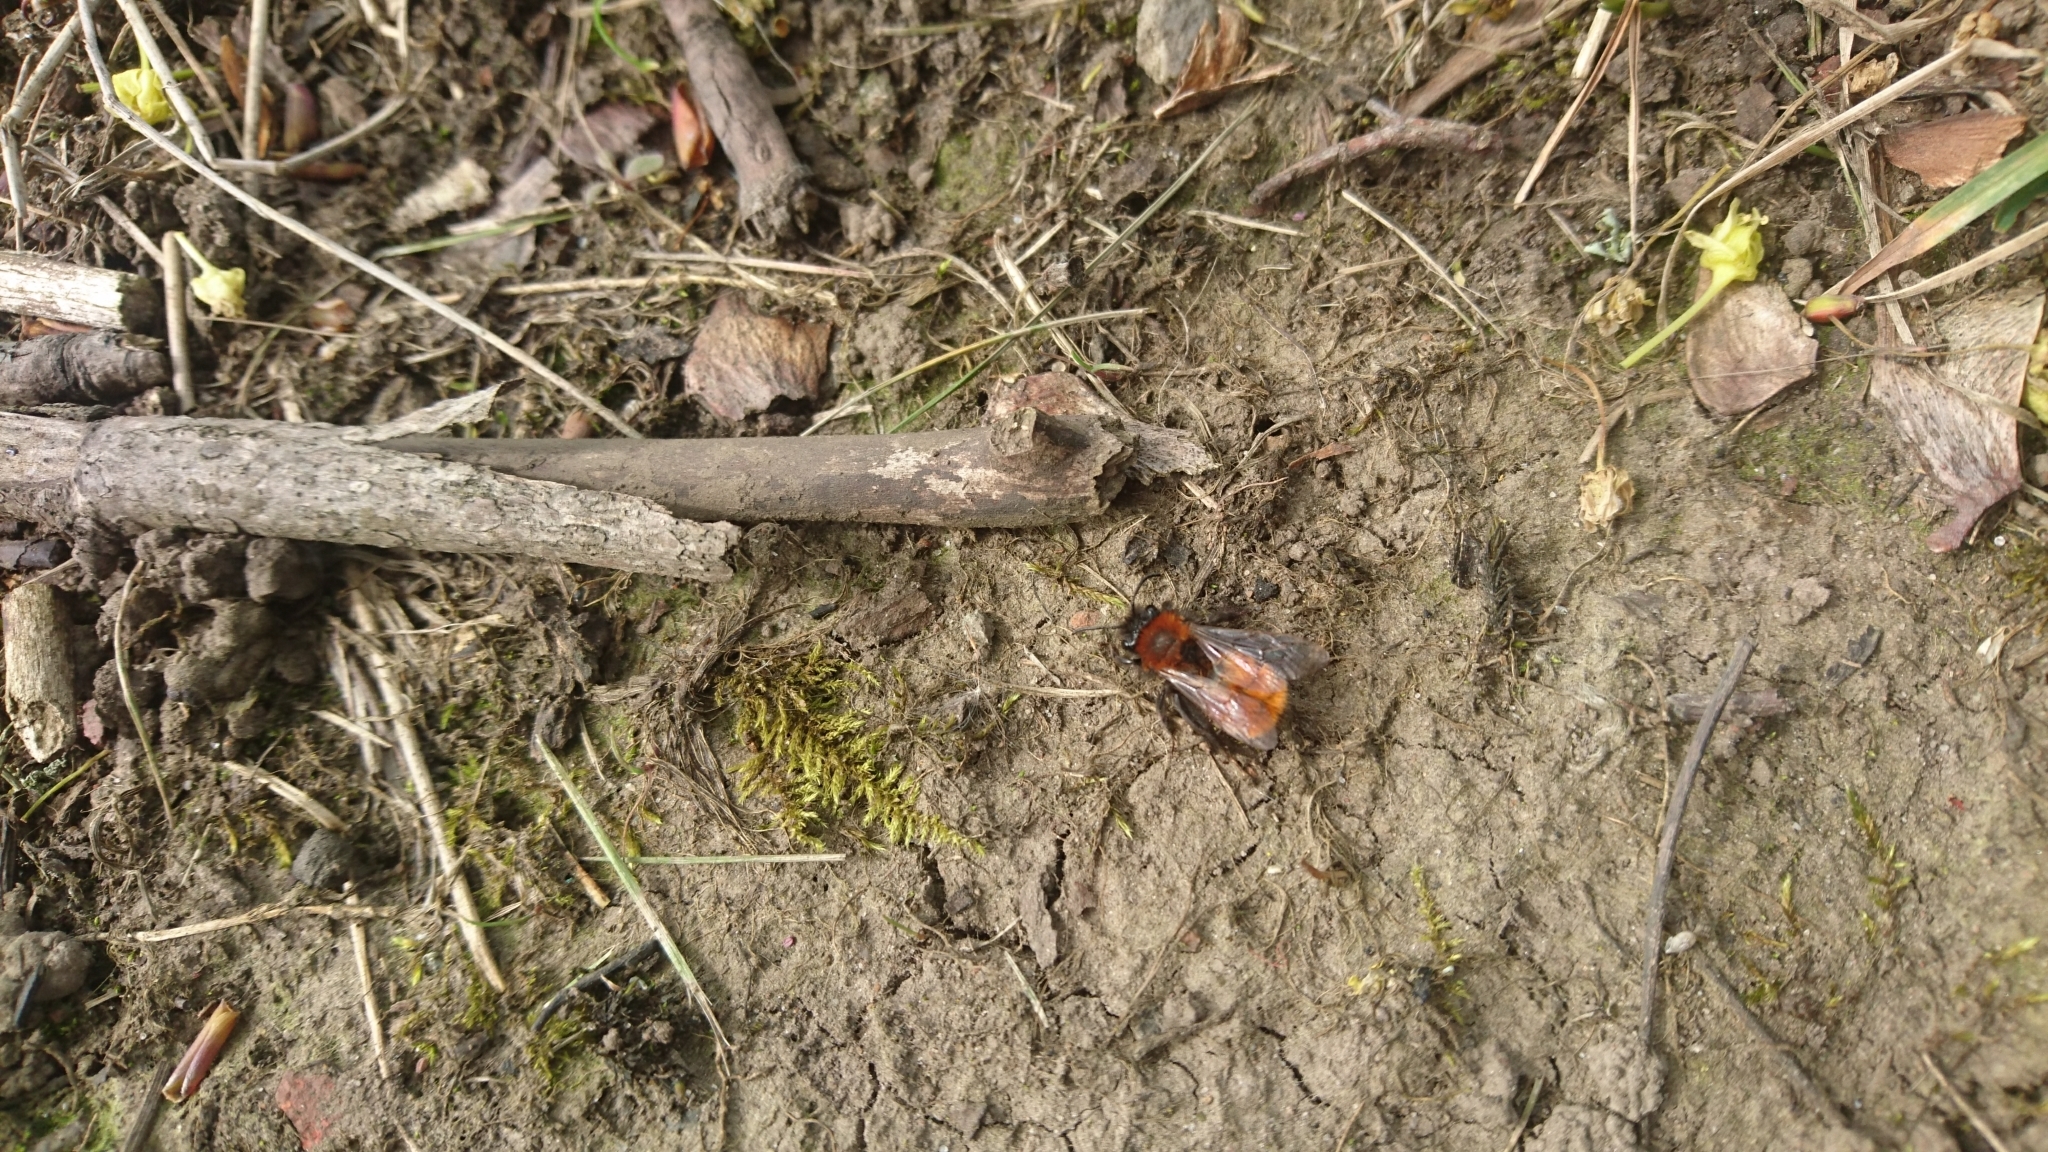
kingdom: Animalia
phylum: Arthropoda
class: Insecta
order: Hymenoptera
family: Andrenidae
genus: Andrena
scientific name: Andrena fulva
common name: Tawny mining bee
